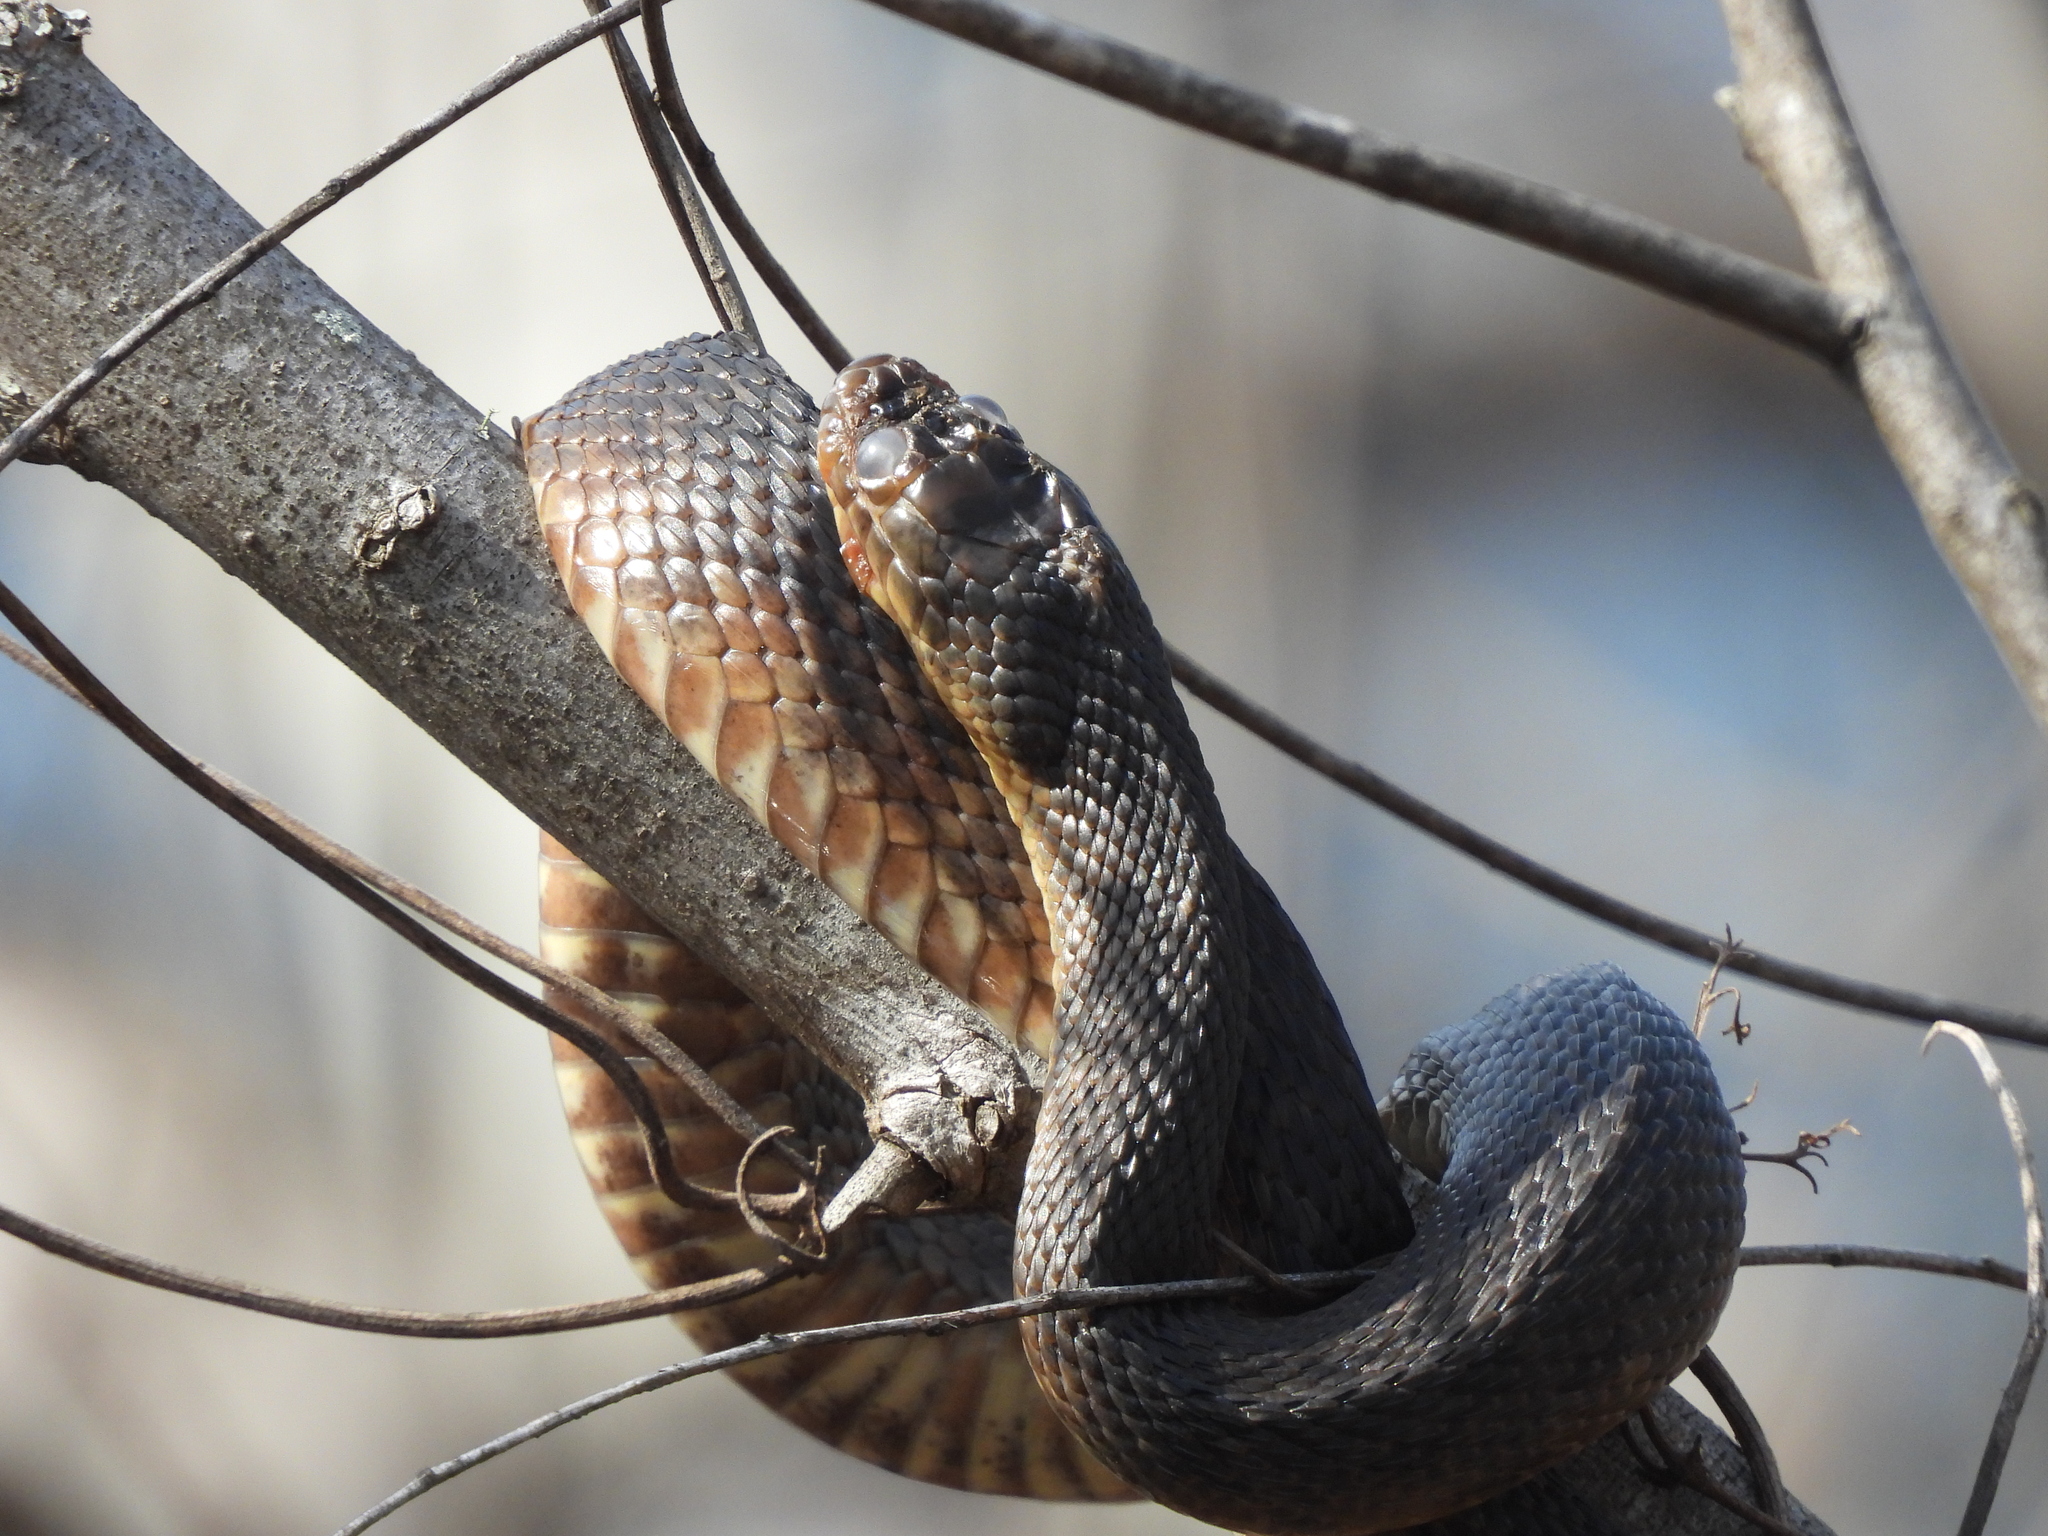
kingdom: Animalia
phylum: Chordata
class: Squamata
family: Colubridae
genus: Nerodia
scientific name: Nerodia cyclopion
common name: Mississippi green water snake
